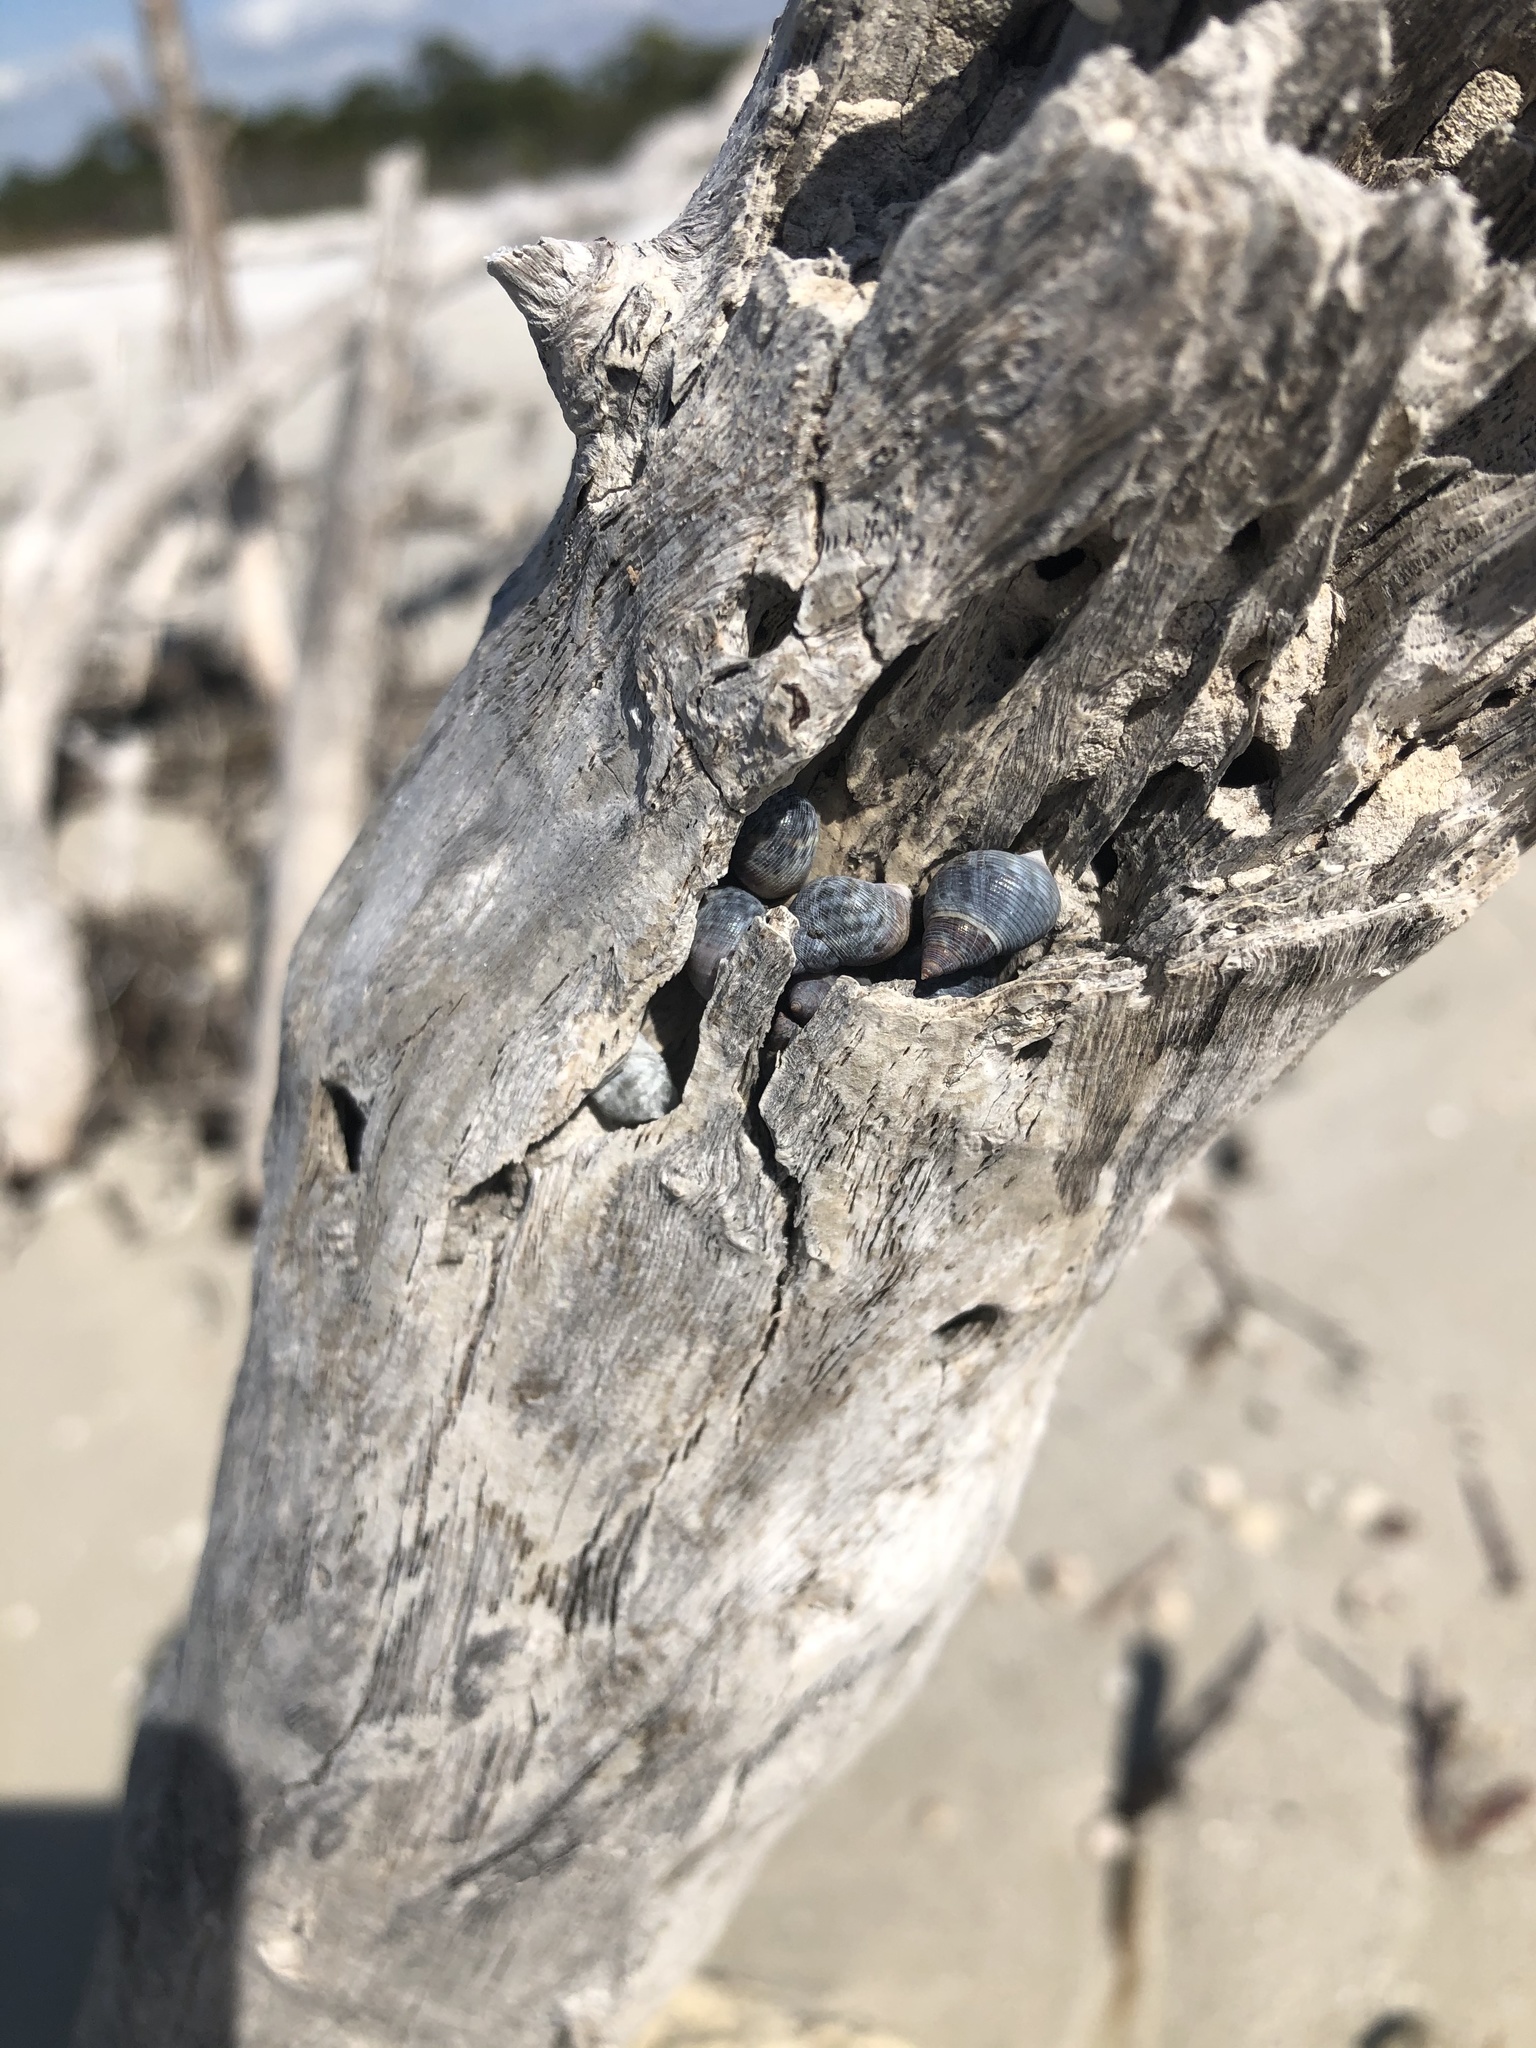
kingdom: Animalia
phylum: Mollusca
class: Gastropoda
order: Littorinimorpha
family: Littorinidae
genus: Littoraria
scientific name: Littoraria nebulosa
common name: Cloudy periwinkle
